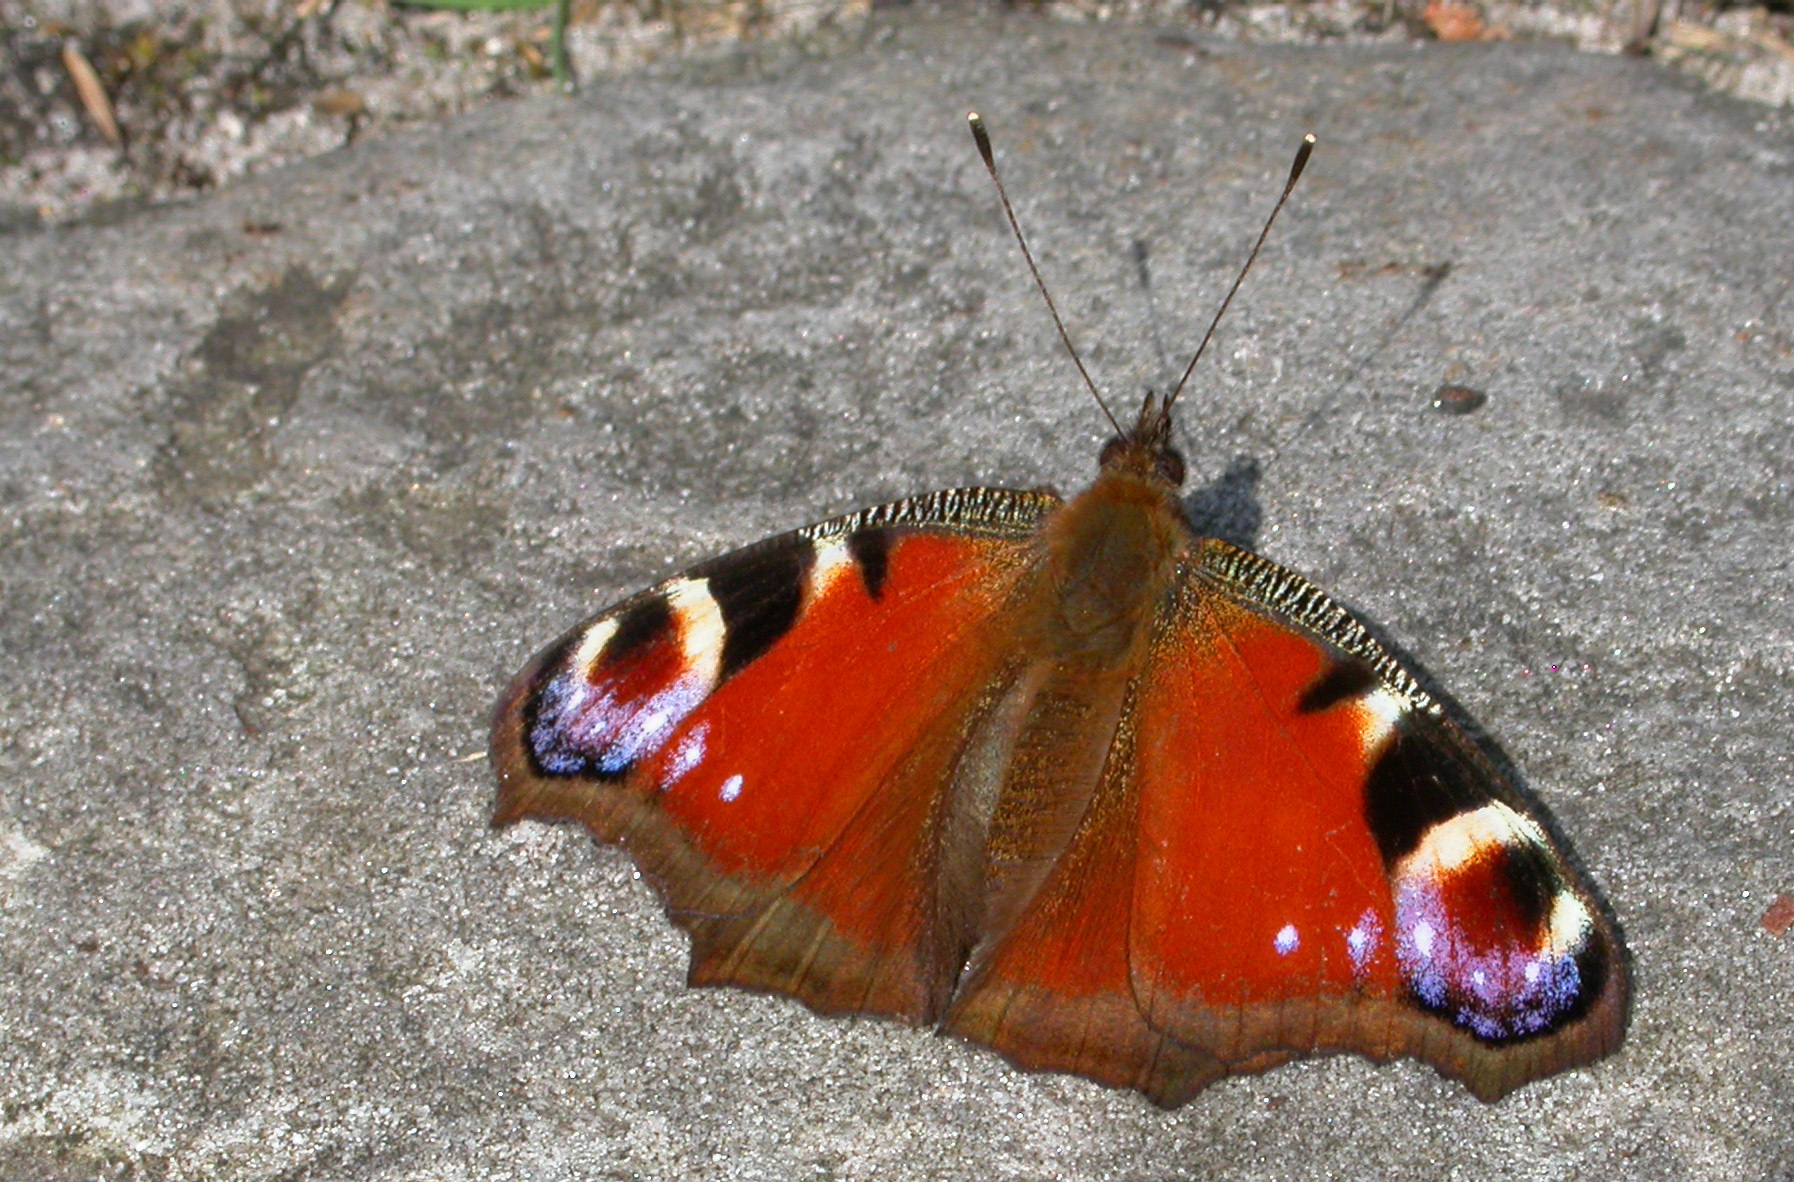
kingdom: Animalia
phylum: Arthropoda
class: Insecta
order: Lepidoptera
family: Nymphalidae
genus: Aglais
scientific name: Aglais io
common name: Peacock
